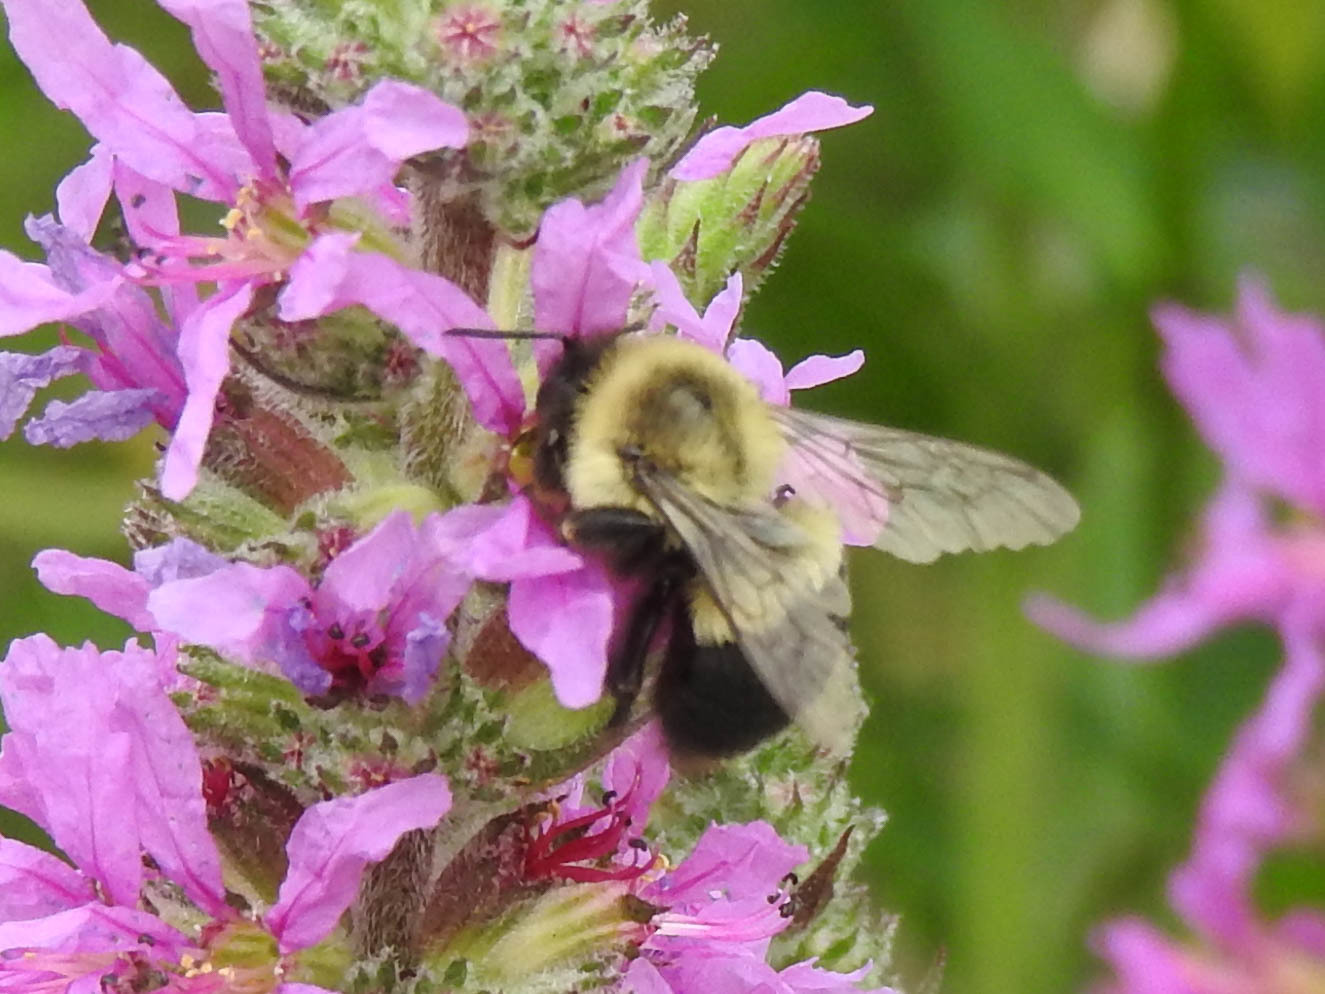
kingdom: Animalia
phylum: Arthropoda
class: Insecta
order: Hymenoptera
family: Apidae
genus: Bombus
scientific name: Bombus impatiens
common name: Common eastern bumble bee
